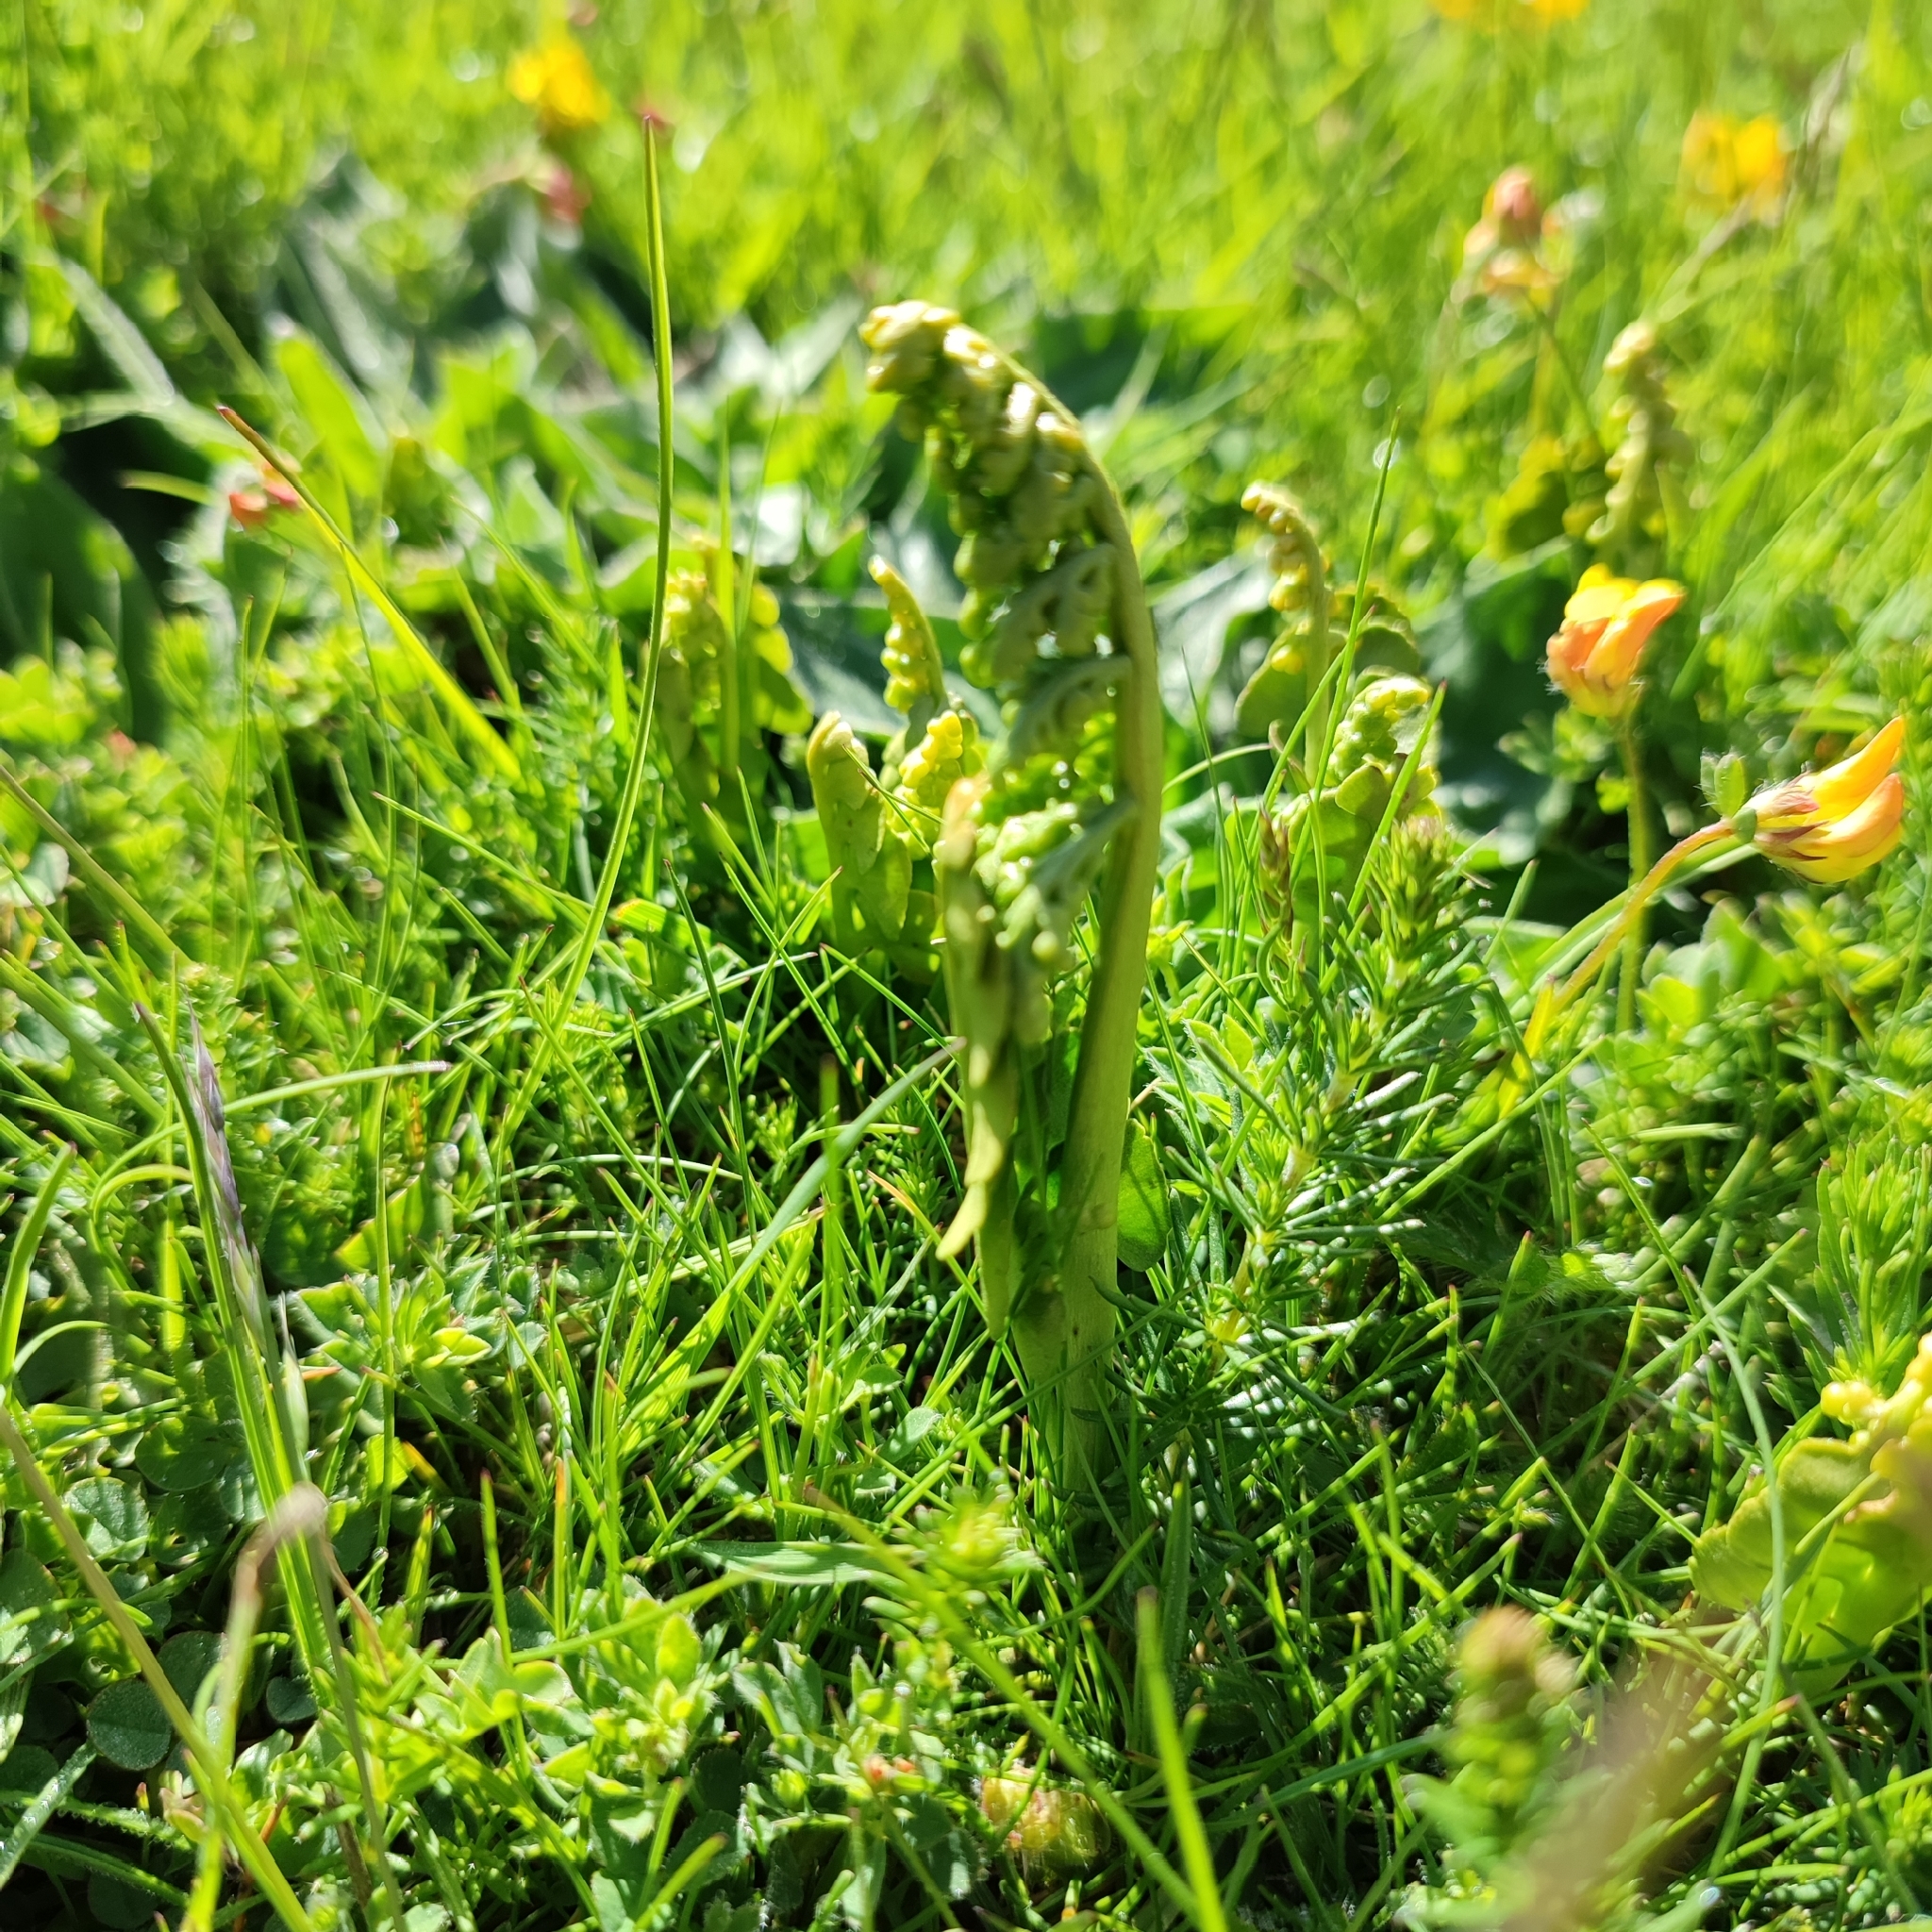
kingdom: Plantae
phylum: Tracheophyta
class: Polypodiopsida
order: Ophioglossales
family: Ophioglossaceae
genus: Botrychium
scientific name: Botrychium lunaria
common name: Moonwort
